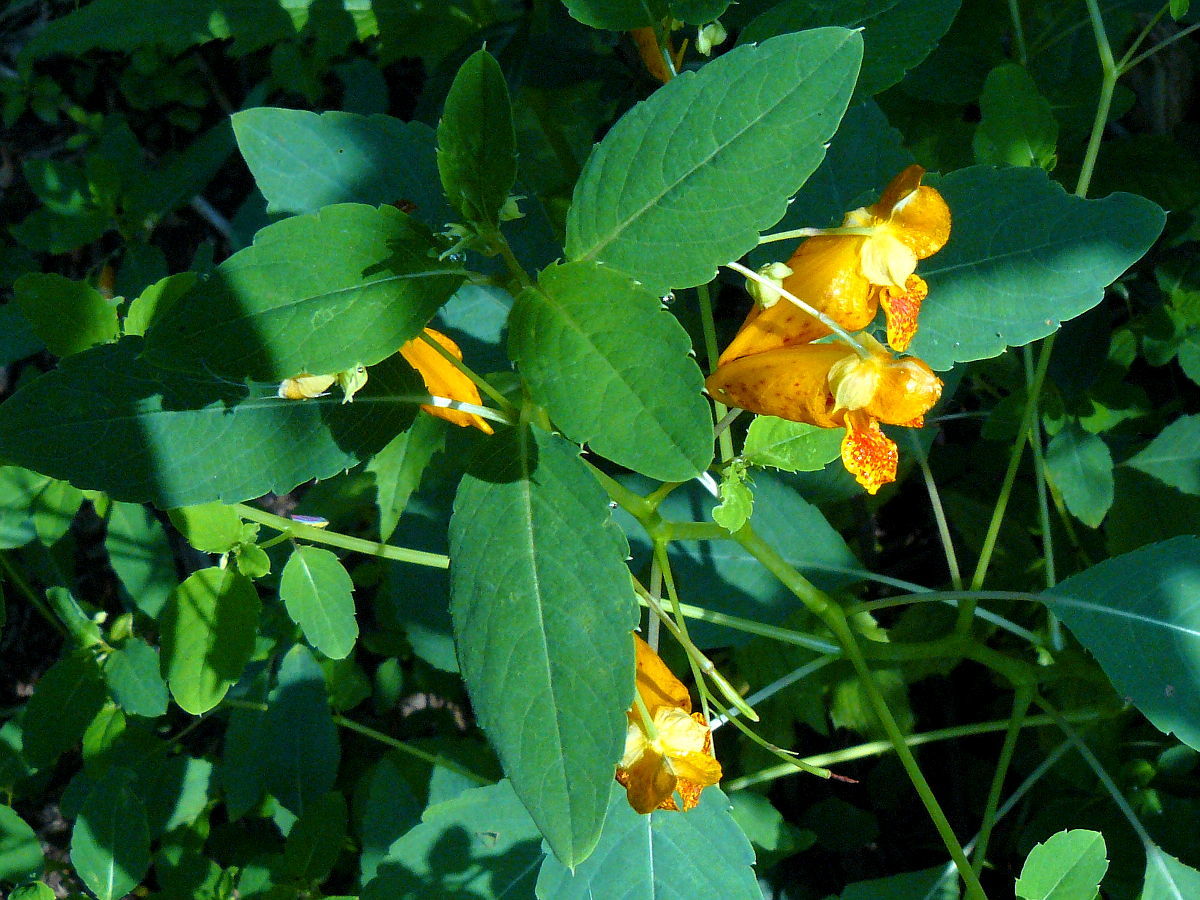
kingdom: Plantae
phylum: Tracheophyta
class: Magnoliopsida
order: Ericales
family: Balsaminaceae
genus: Impatiens
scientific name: Impatiens capensis
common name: Orange balsam
